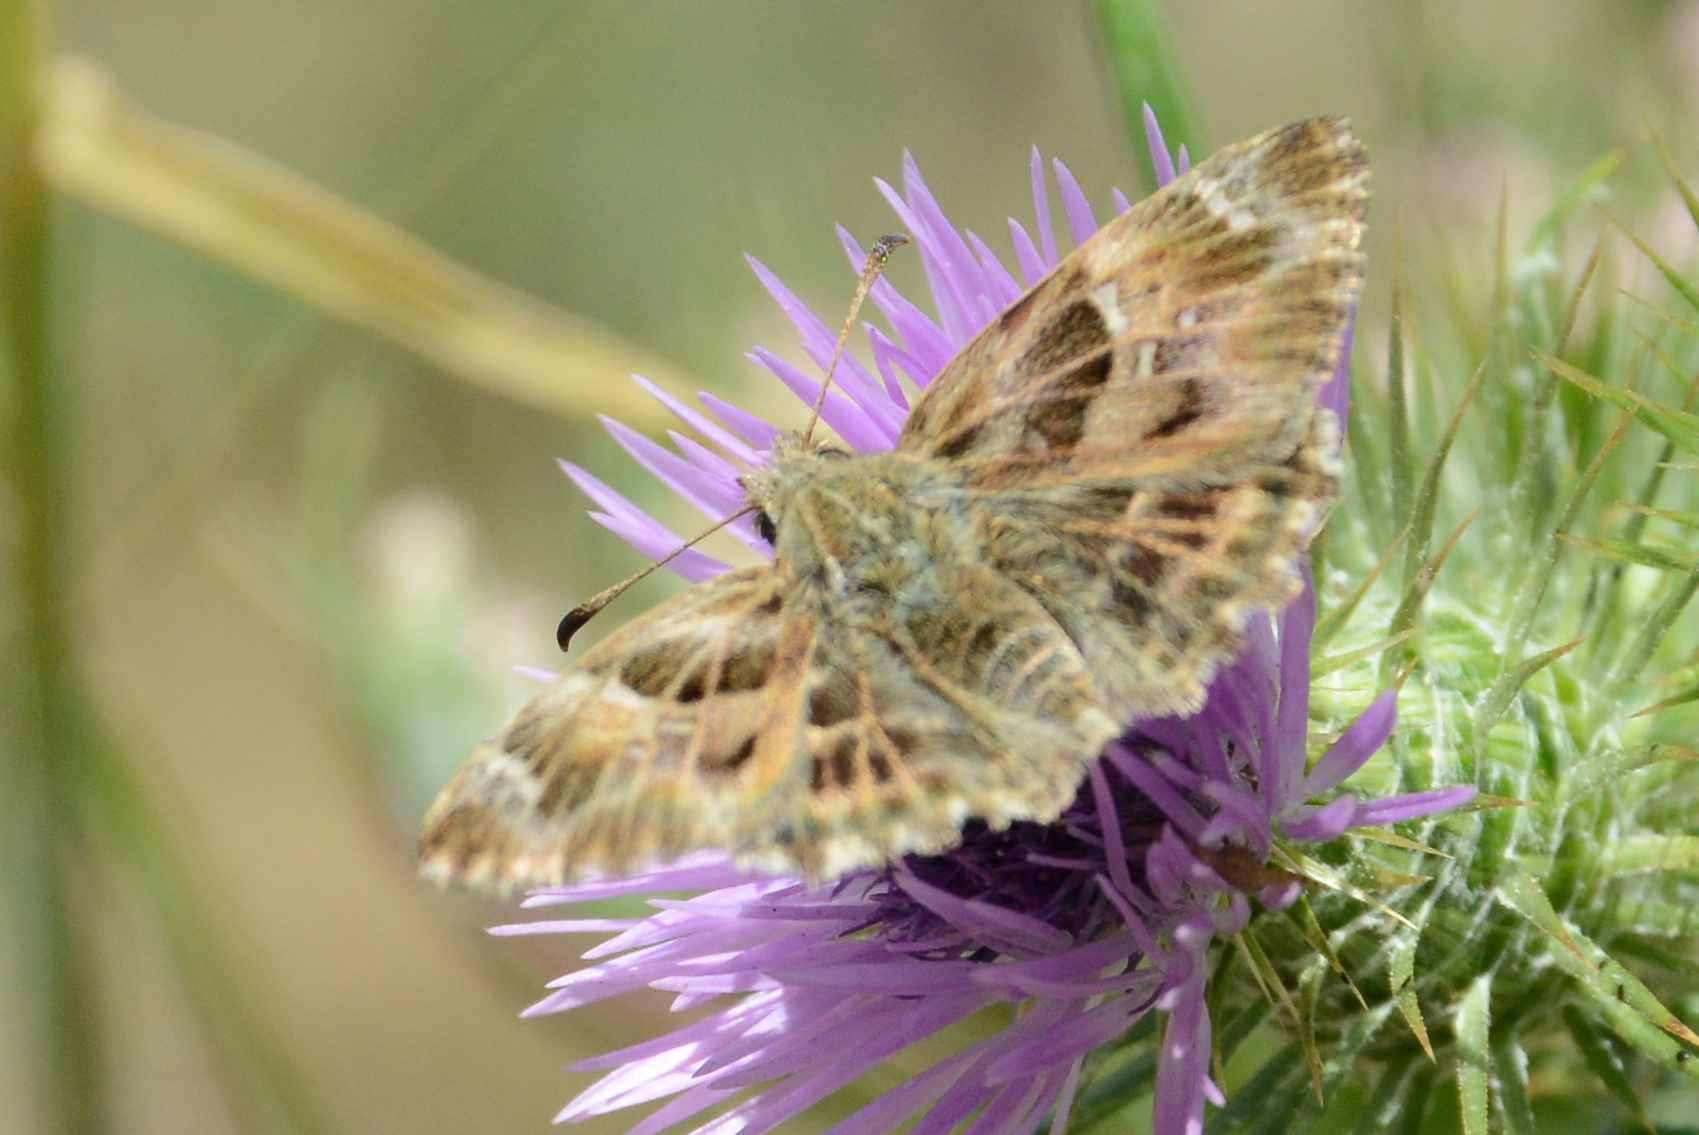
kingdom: Animalia
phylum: Arthropoda
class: Insecta
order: Lepidoptera
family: Hesperiidae
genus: Carcharodus
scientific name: Carcharodus alceae
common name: Mallow skipper
